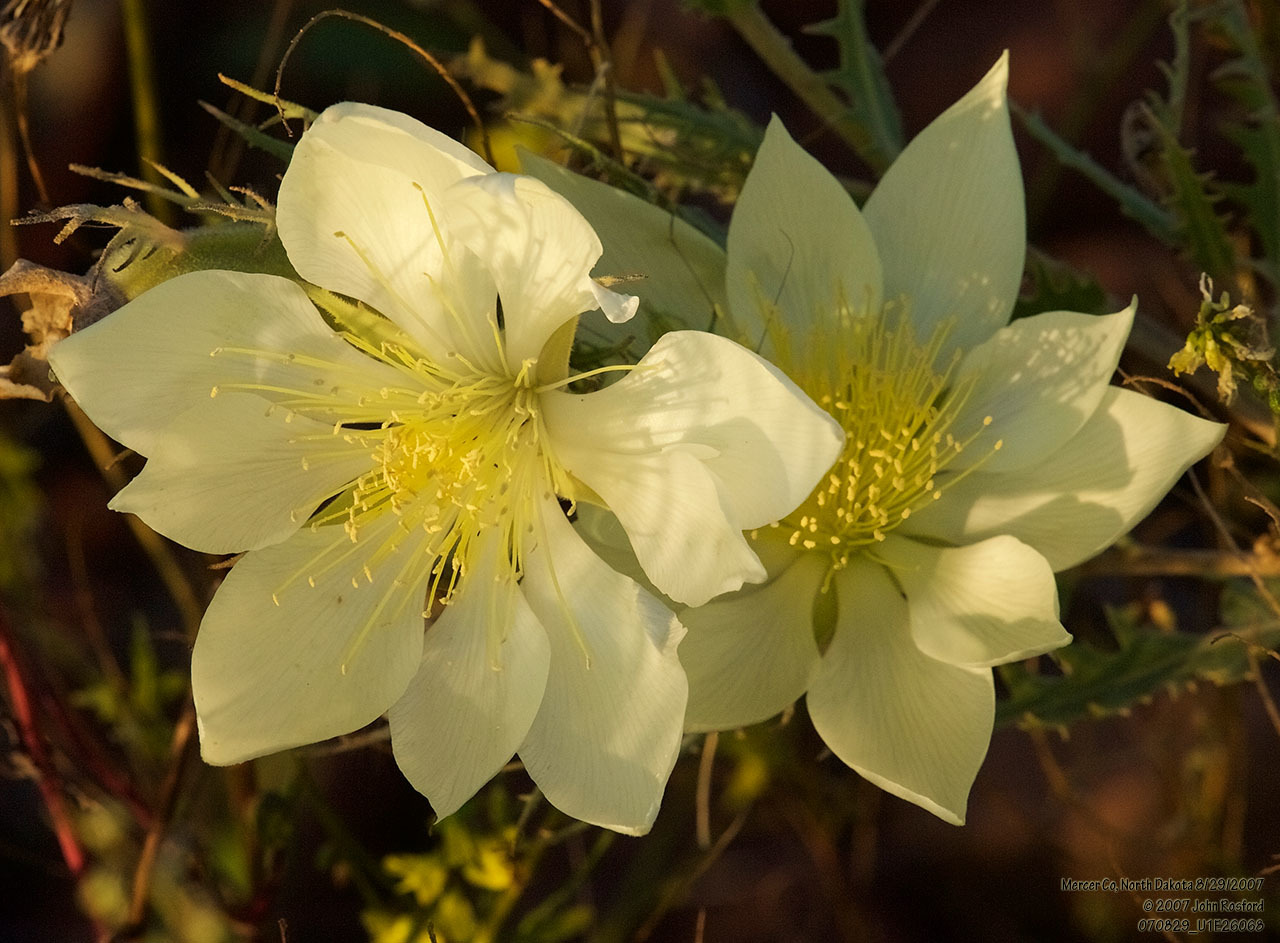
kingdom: Plantae
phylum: Tracheophyta
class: Magnoliopsida
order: Cornales
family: Loasaceae
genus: Mentzelia
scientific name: Mentzelia decapetala
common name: Gumbo-lily
